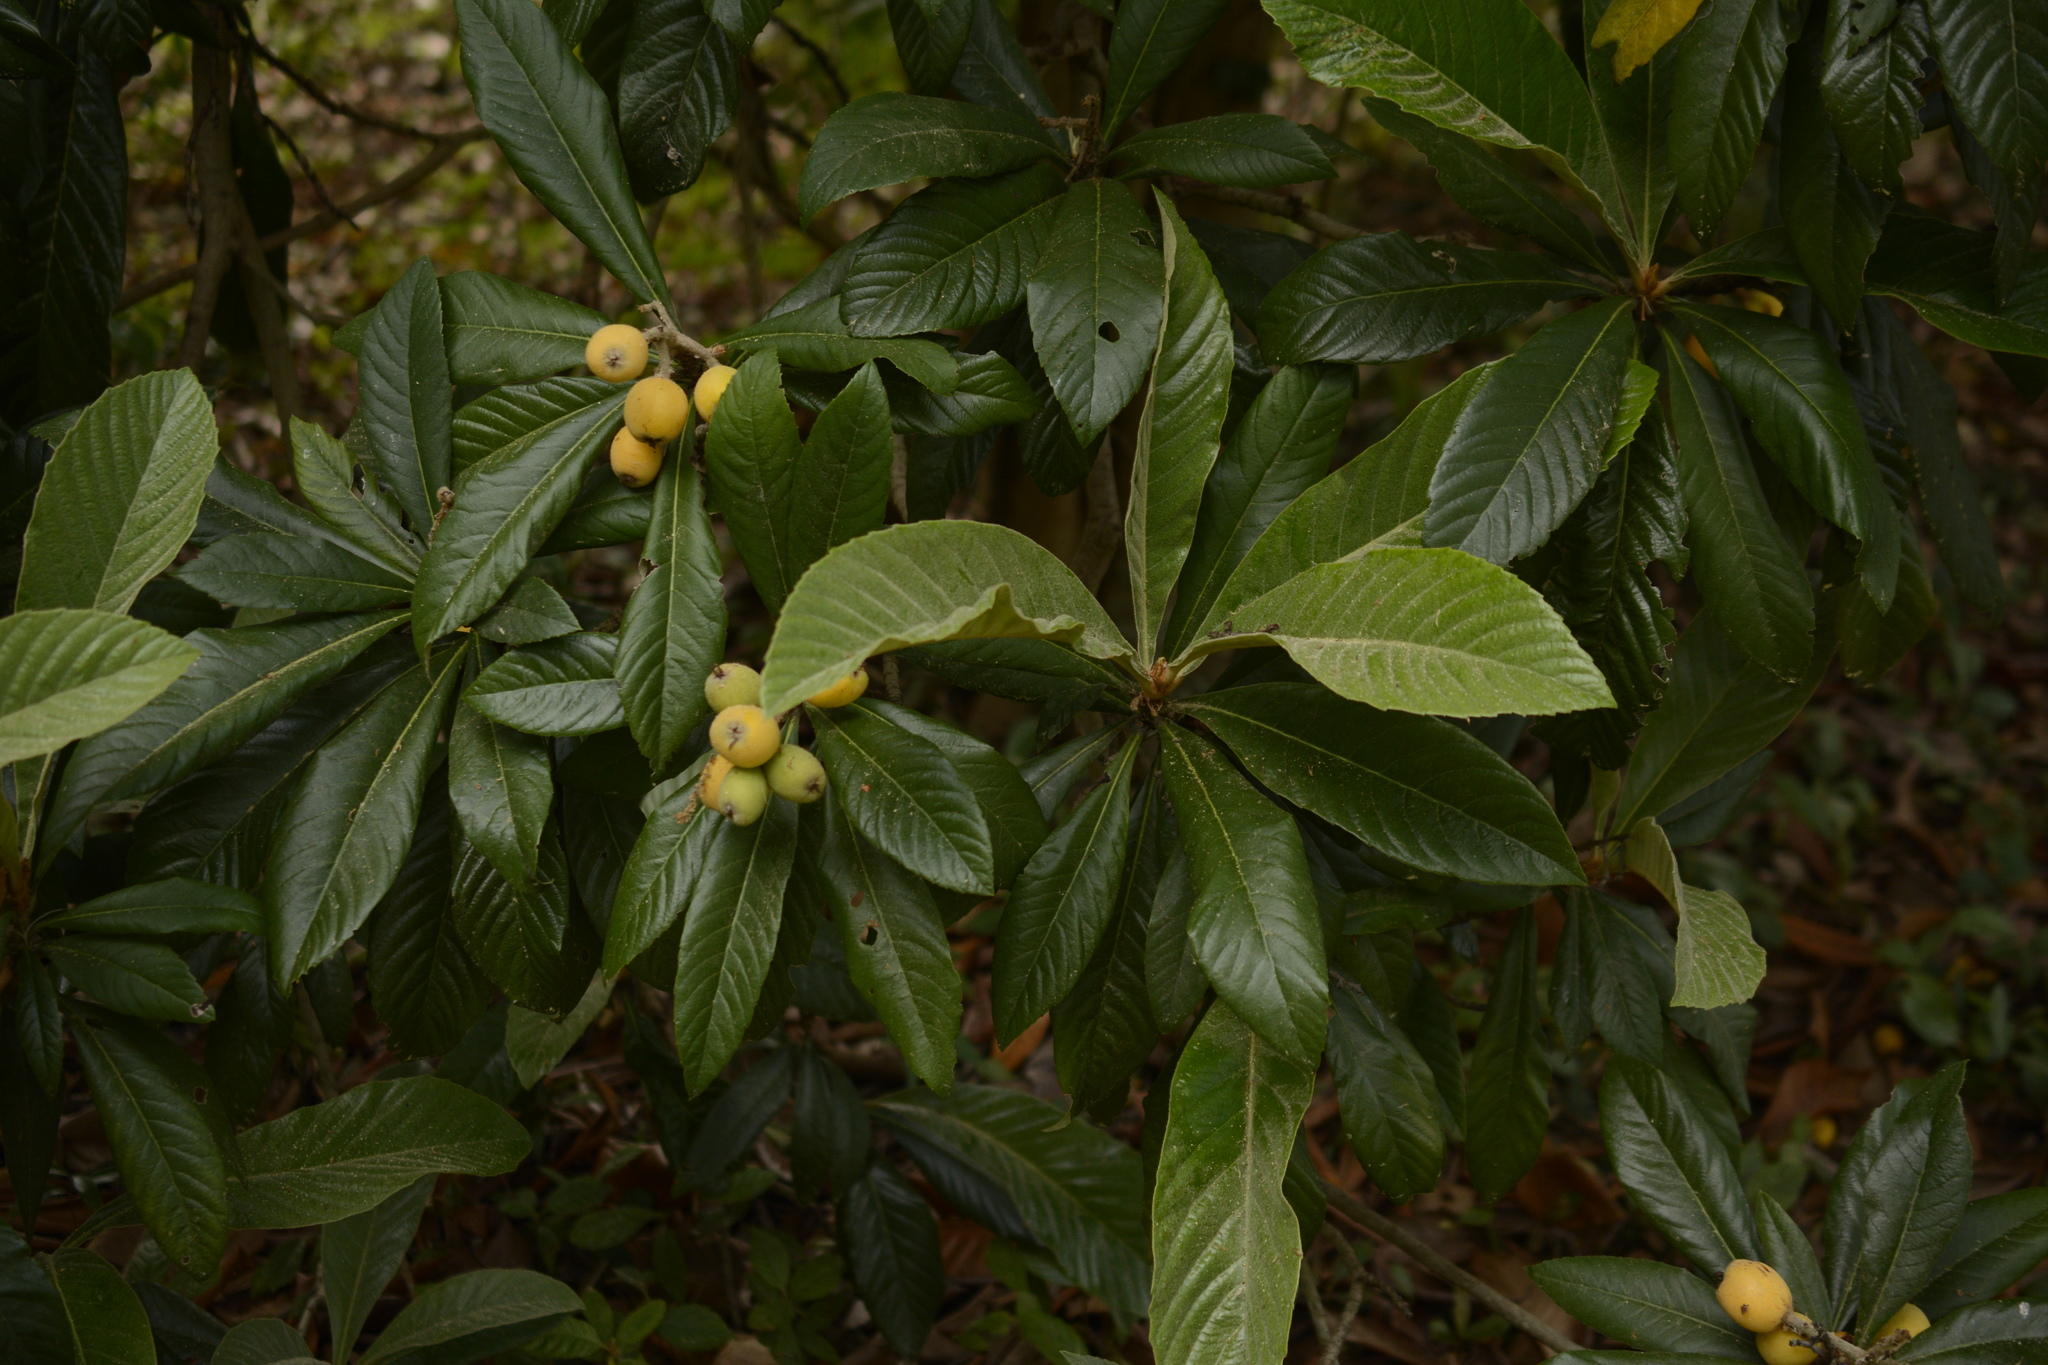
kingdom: Plantae
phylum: Tracheophyta
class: Magnoliopsida
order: Rosales
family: Rosaceae
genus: Rhaphiolepis
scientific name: Rhaphiolepis bibas
